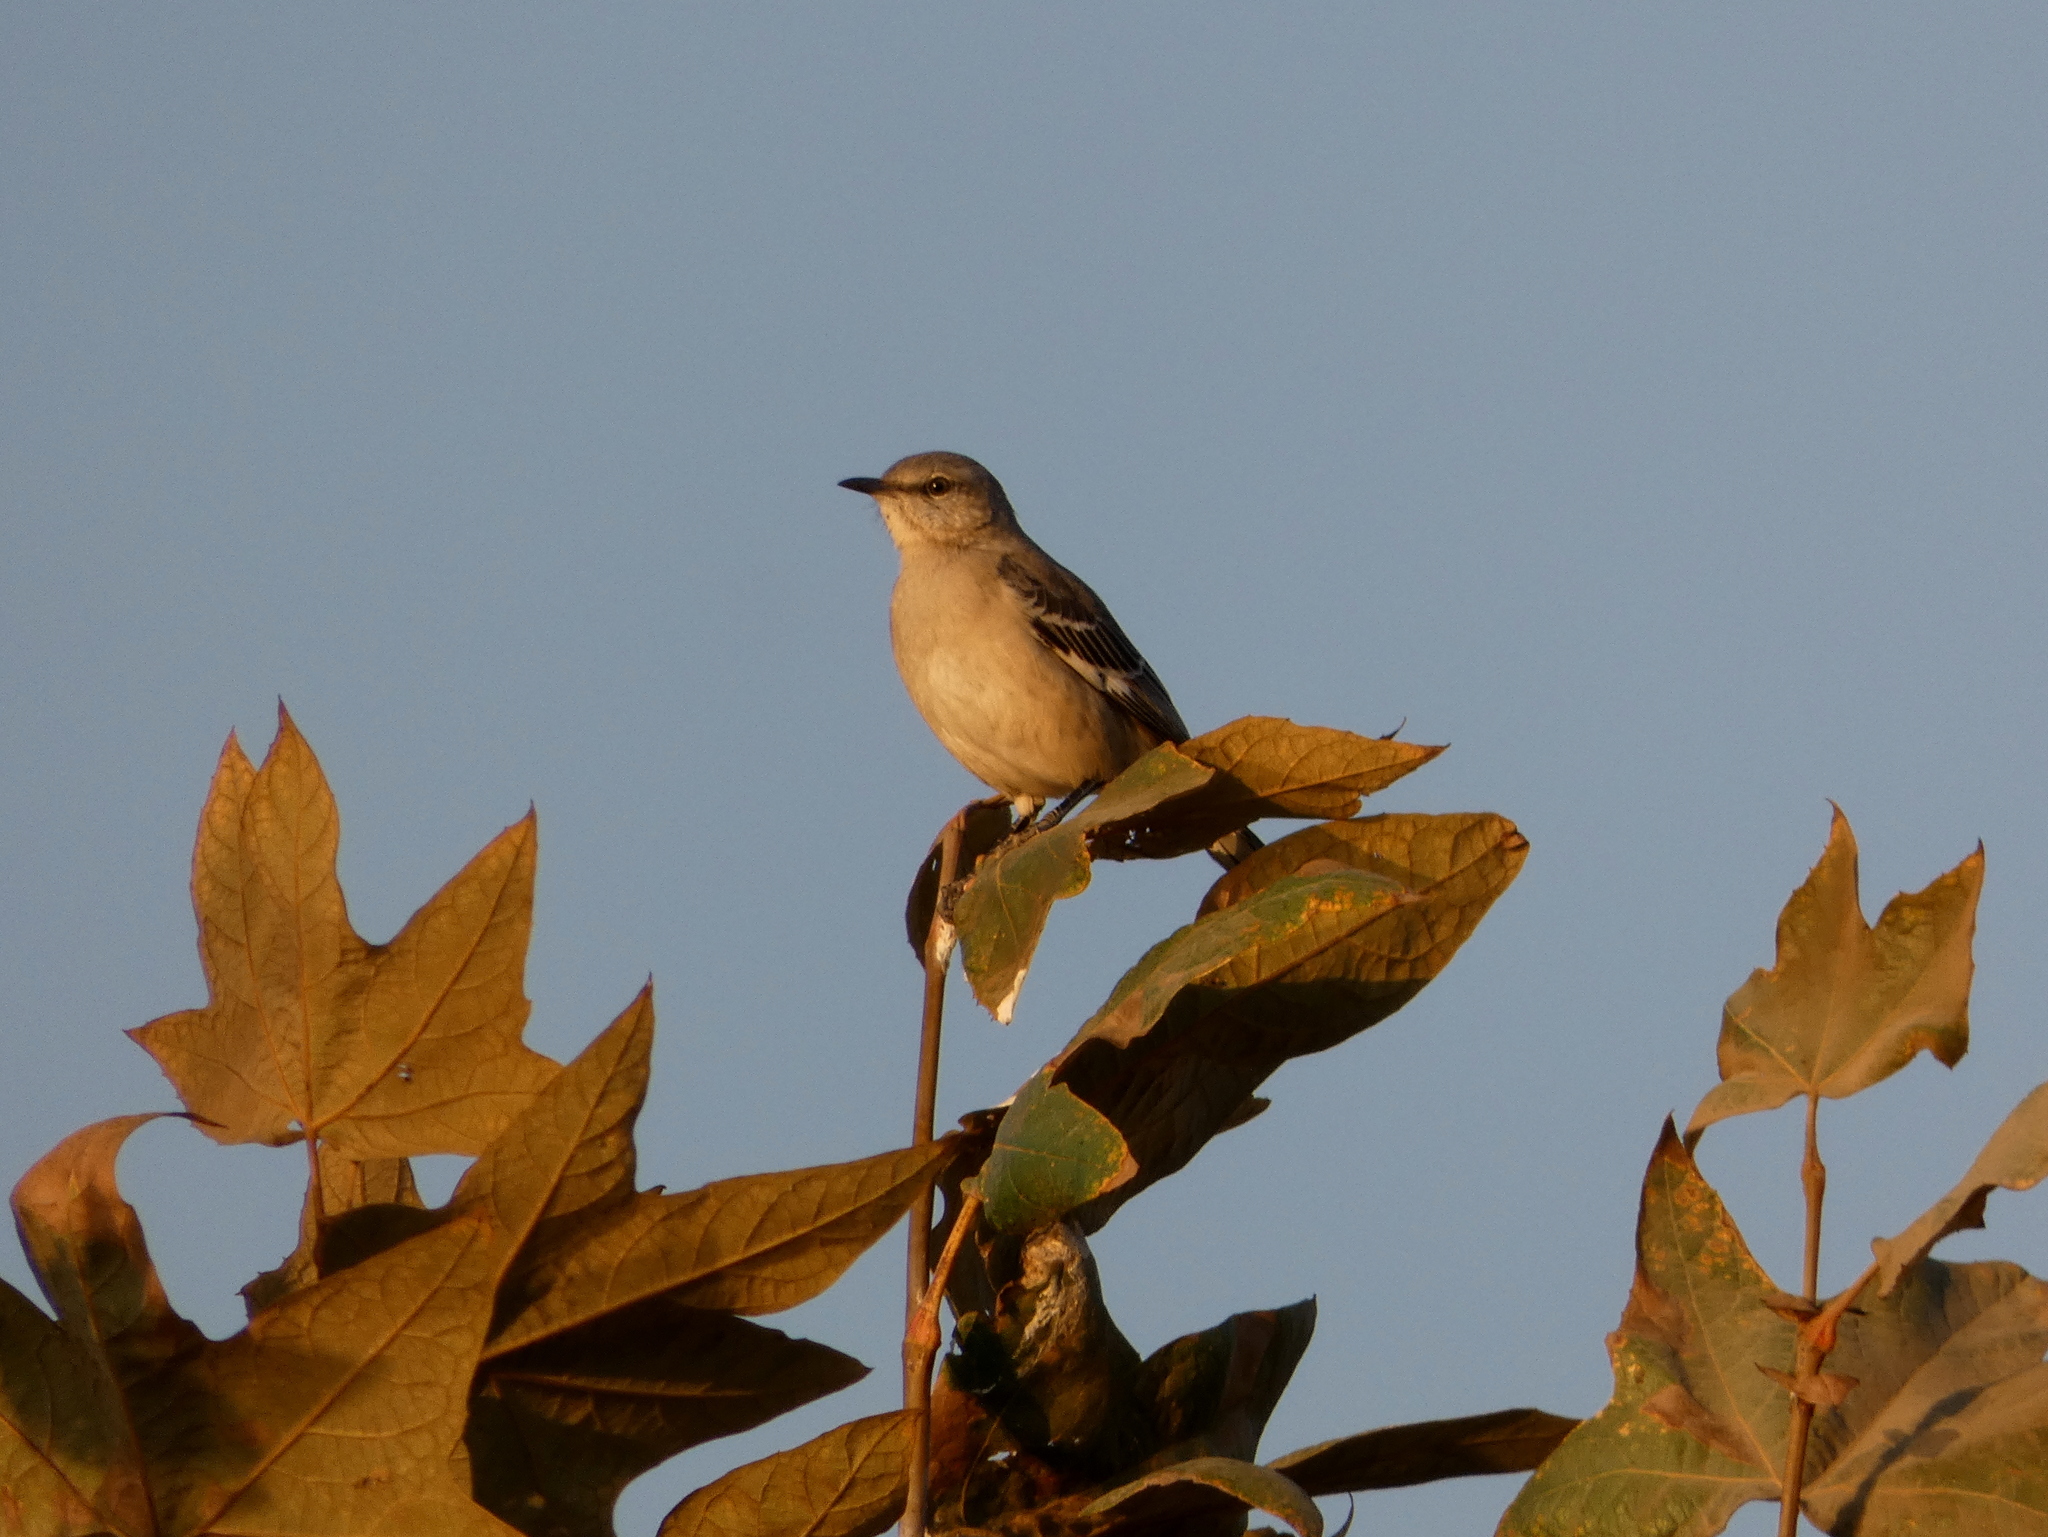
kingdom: Animalia
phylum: Chordata
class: Aves
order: Passeriformes
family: Mimidae
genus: Mimus
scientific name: Mimus polyglottos
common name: Northern mockingbird
